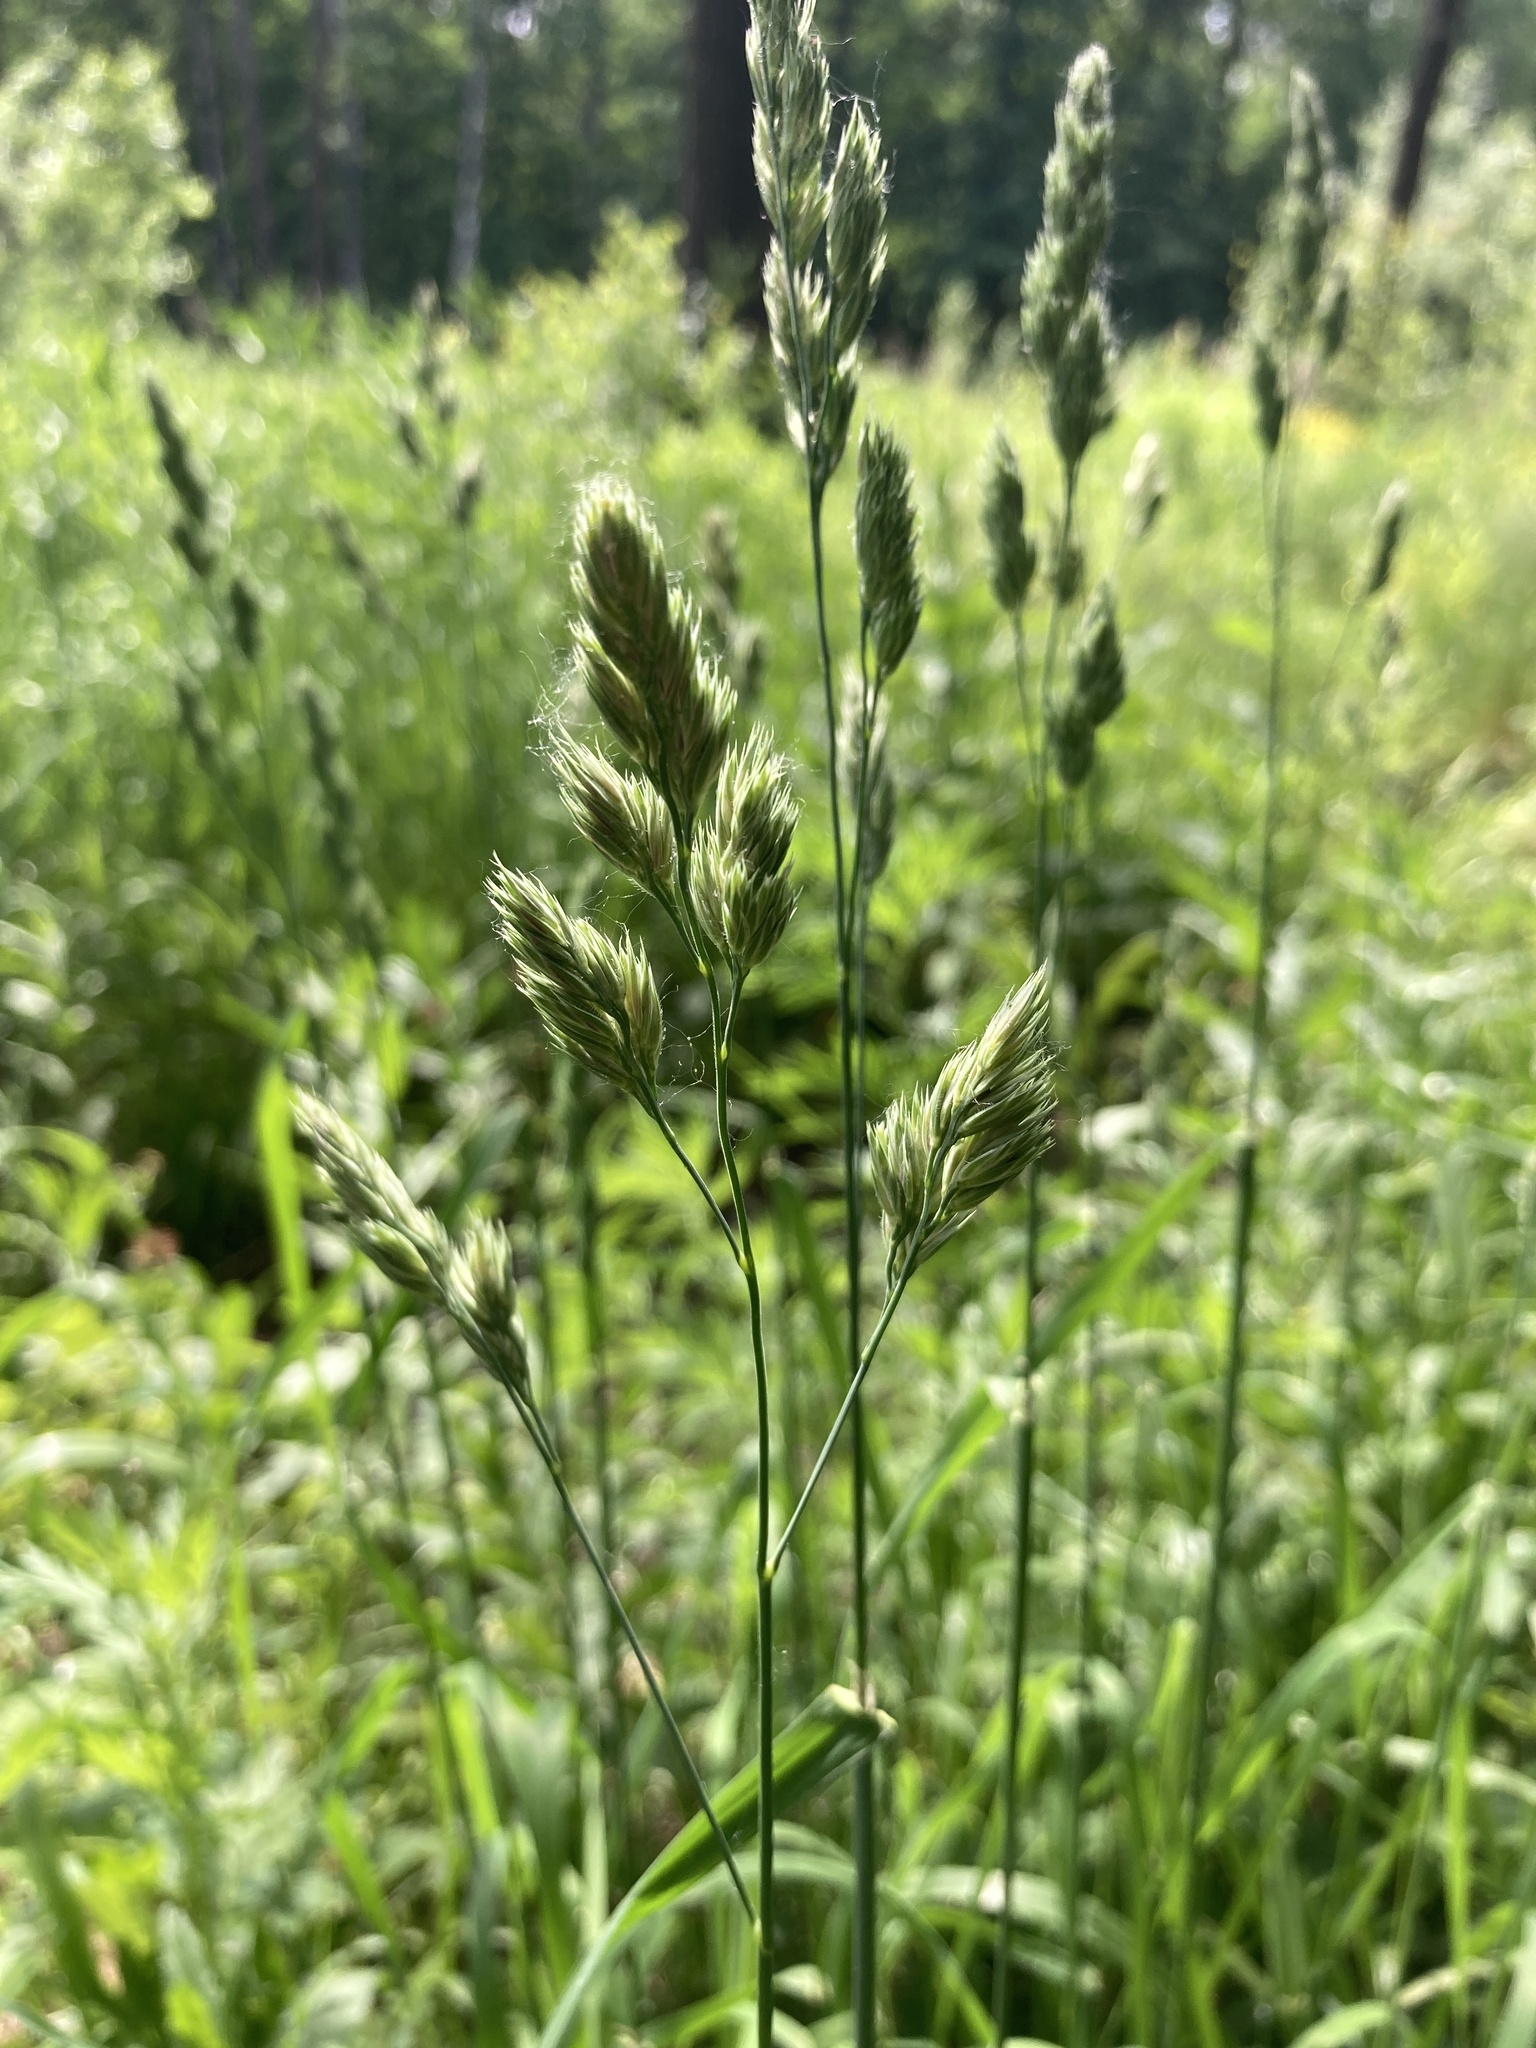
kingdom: Plantae
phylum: Tracheophyta
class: Liliopsida
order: Poales
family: Poaceae
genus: Dactylis
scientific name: Dactylis glomerata
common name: Orchardgrass
